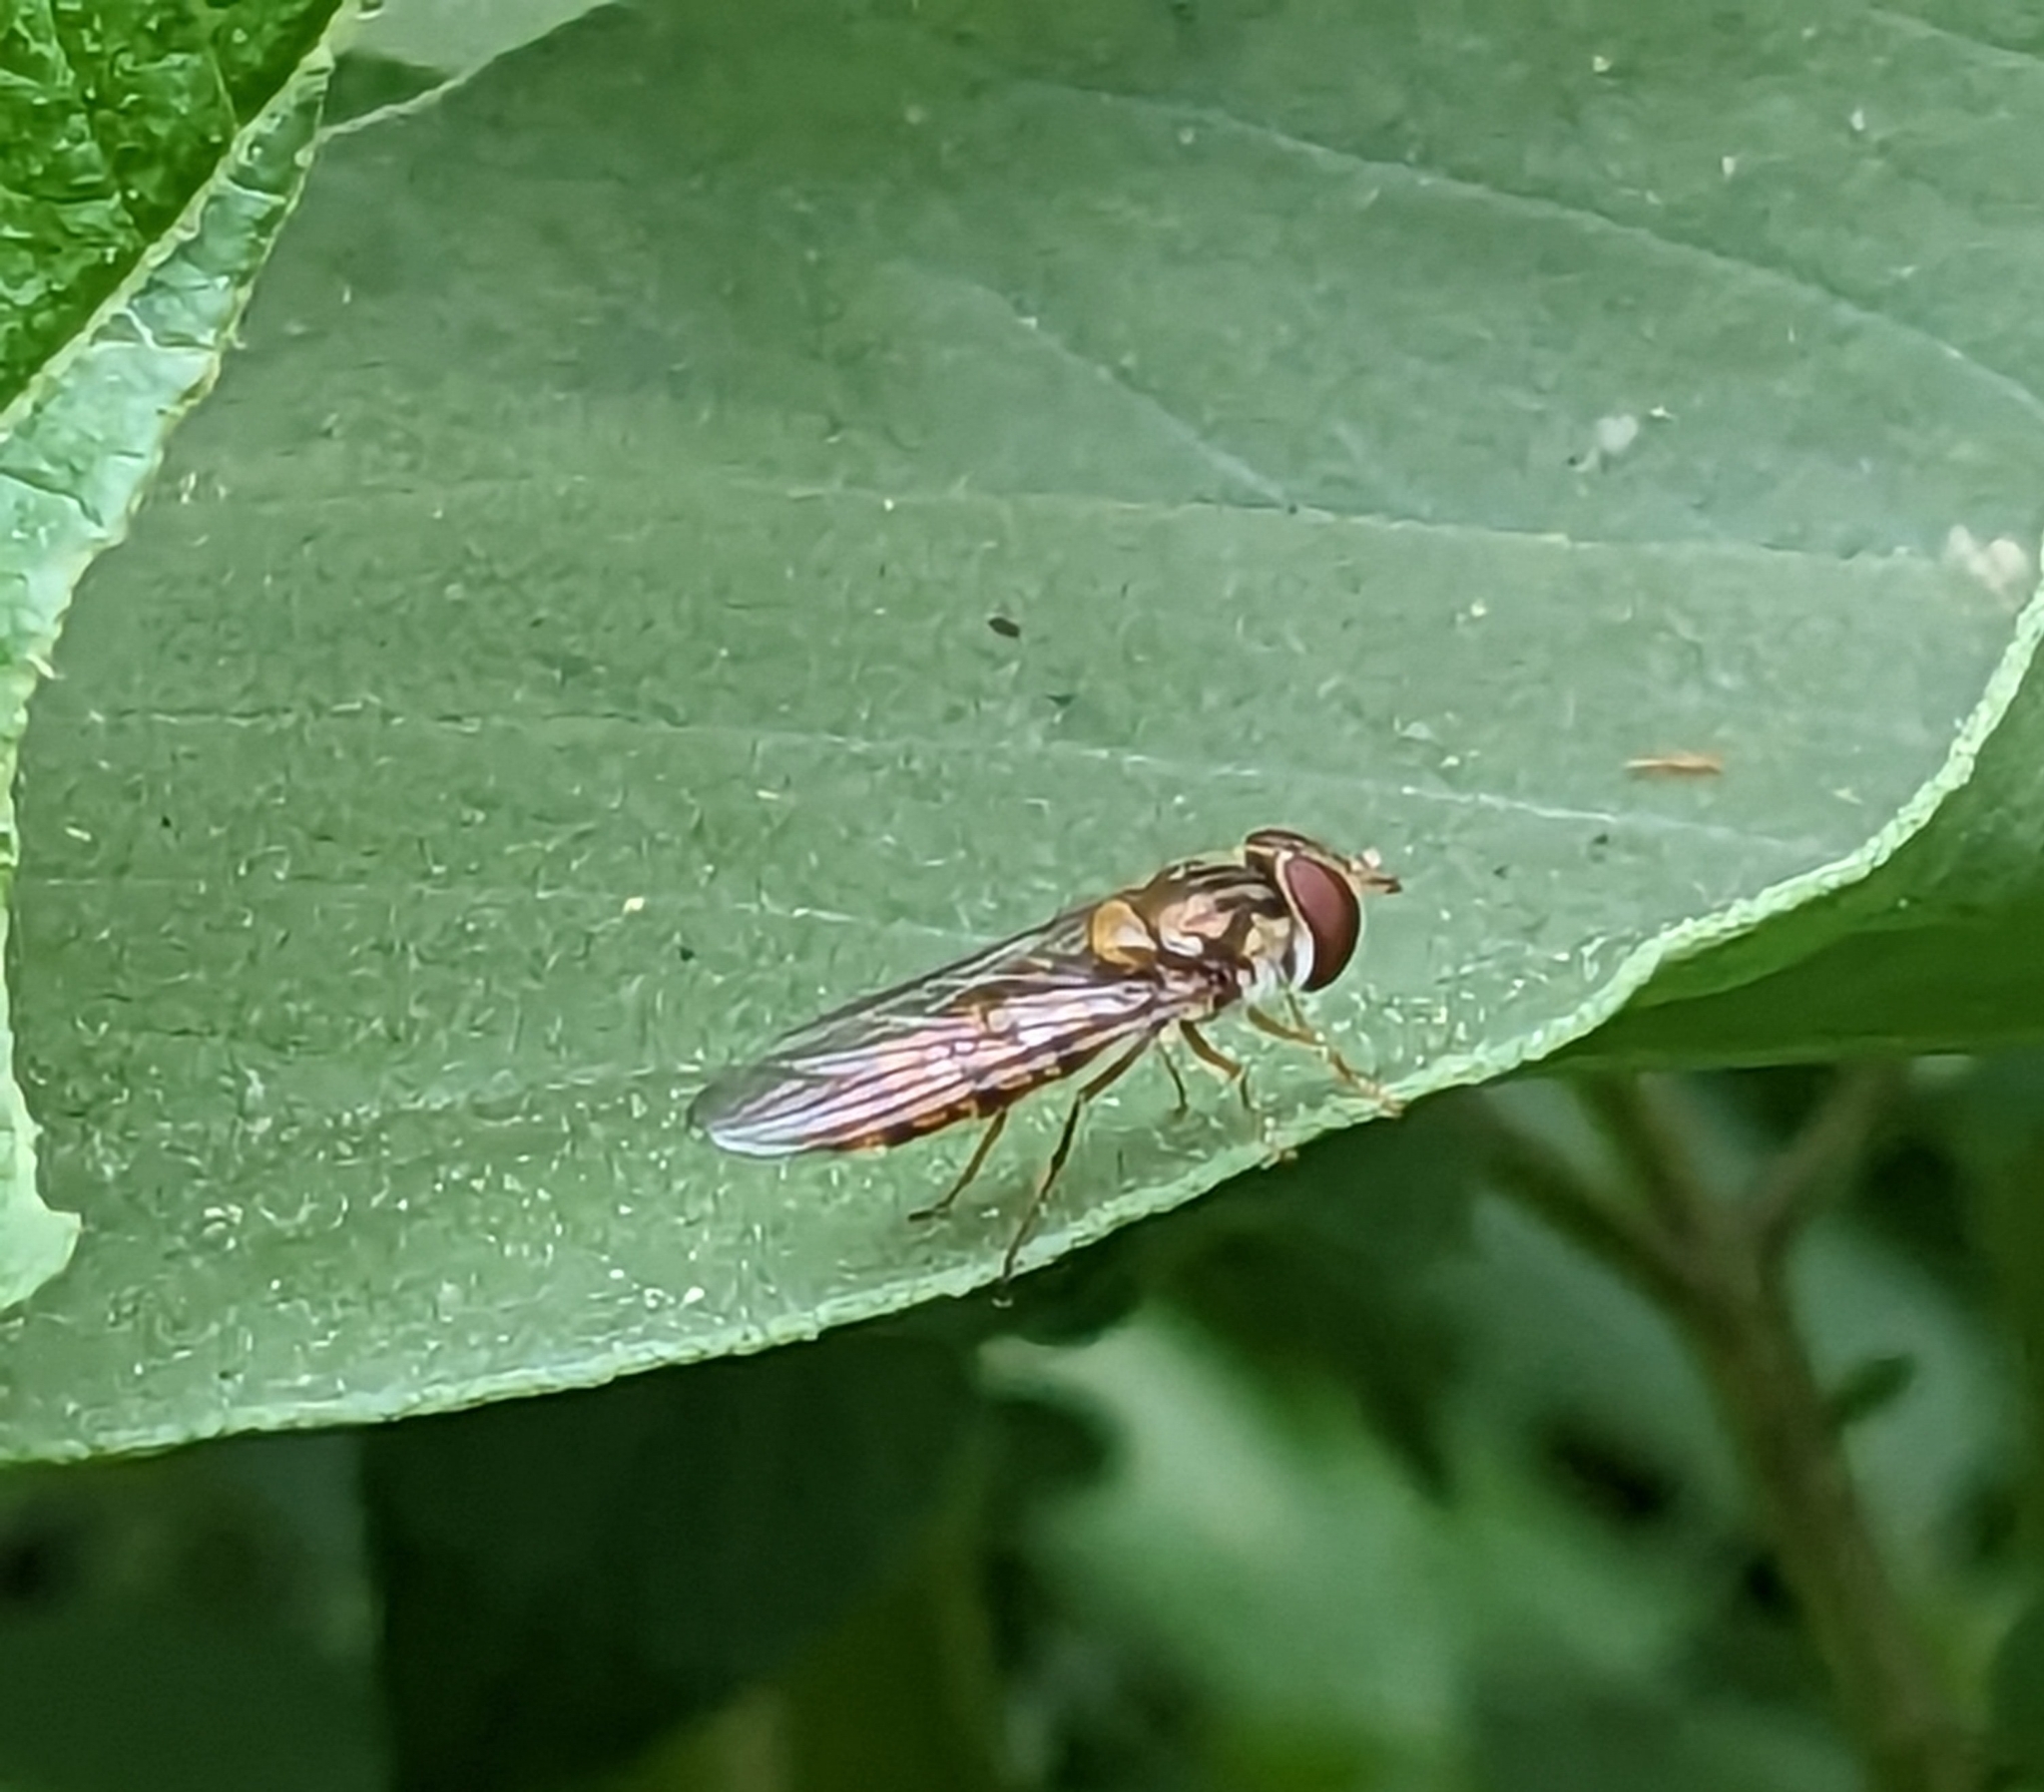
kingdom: Animalia
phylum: Arthropoda
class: Insecta
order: Diptera
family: Syrphidae
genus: Episyrphus
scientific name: Episyrphus balteatus
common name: Marmalade hoverfly
